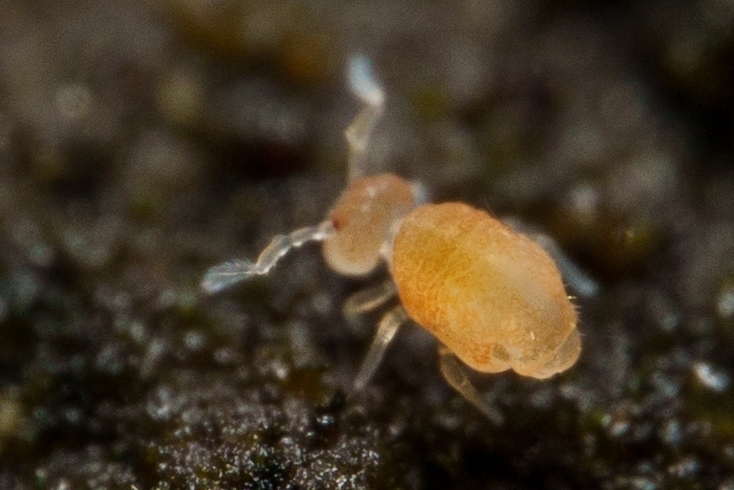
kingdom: Animalia
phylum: Arthropoda
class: Collembola
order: Symphypleona
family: Collophoridae
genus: Collophora
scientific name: Collophora quadrioculata
